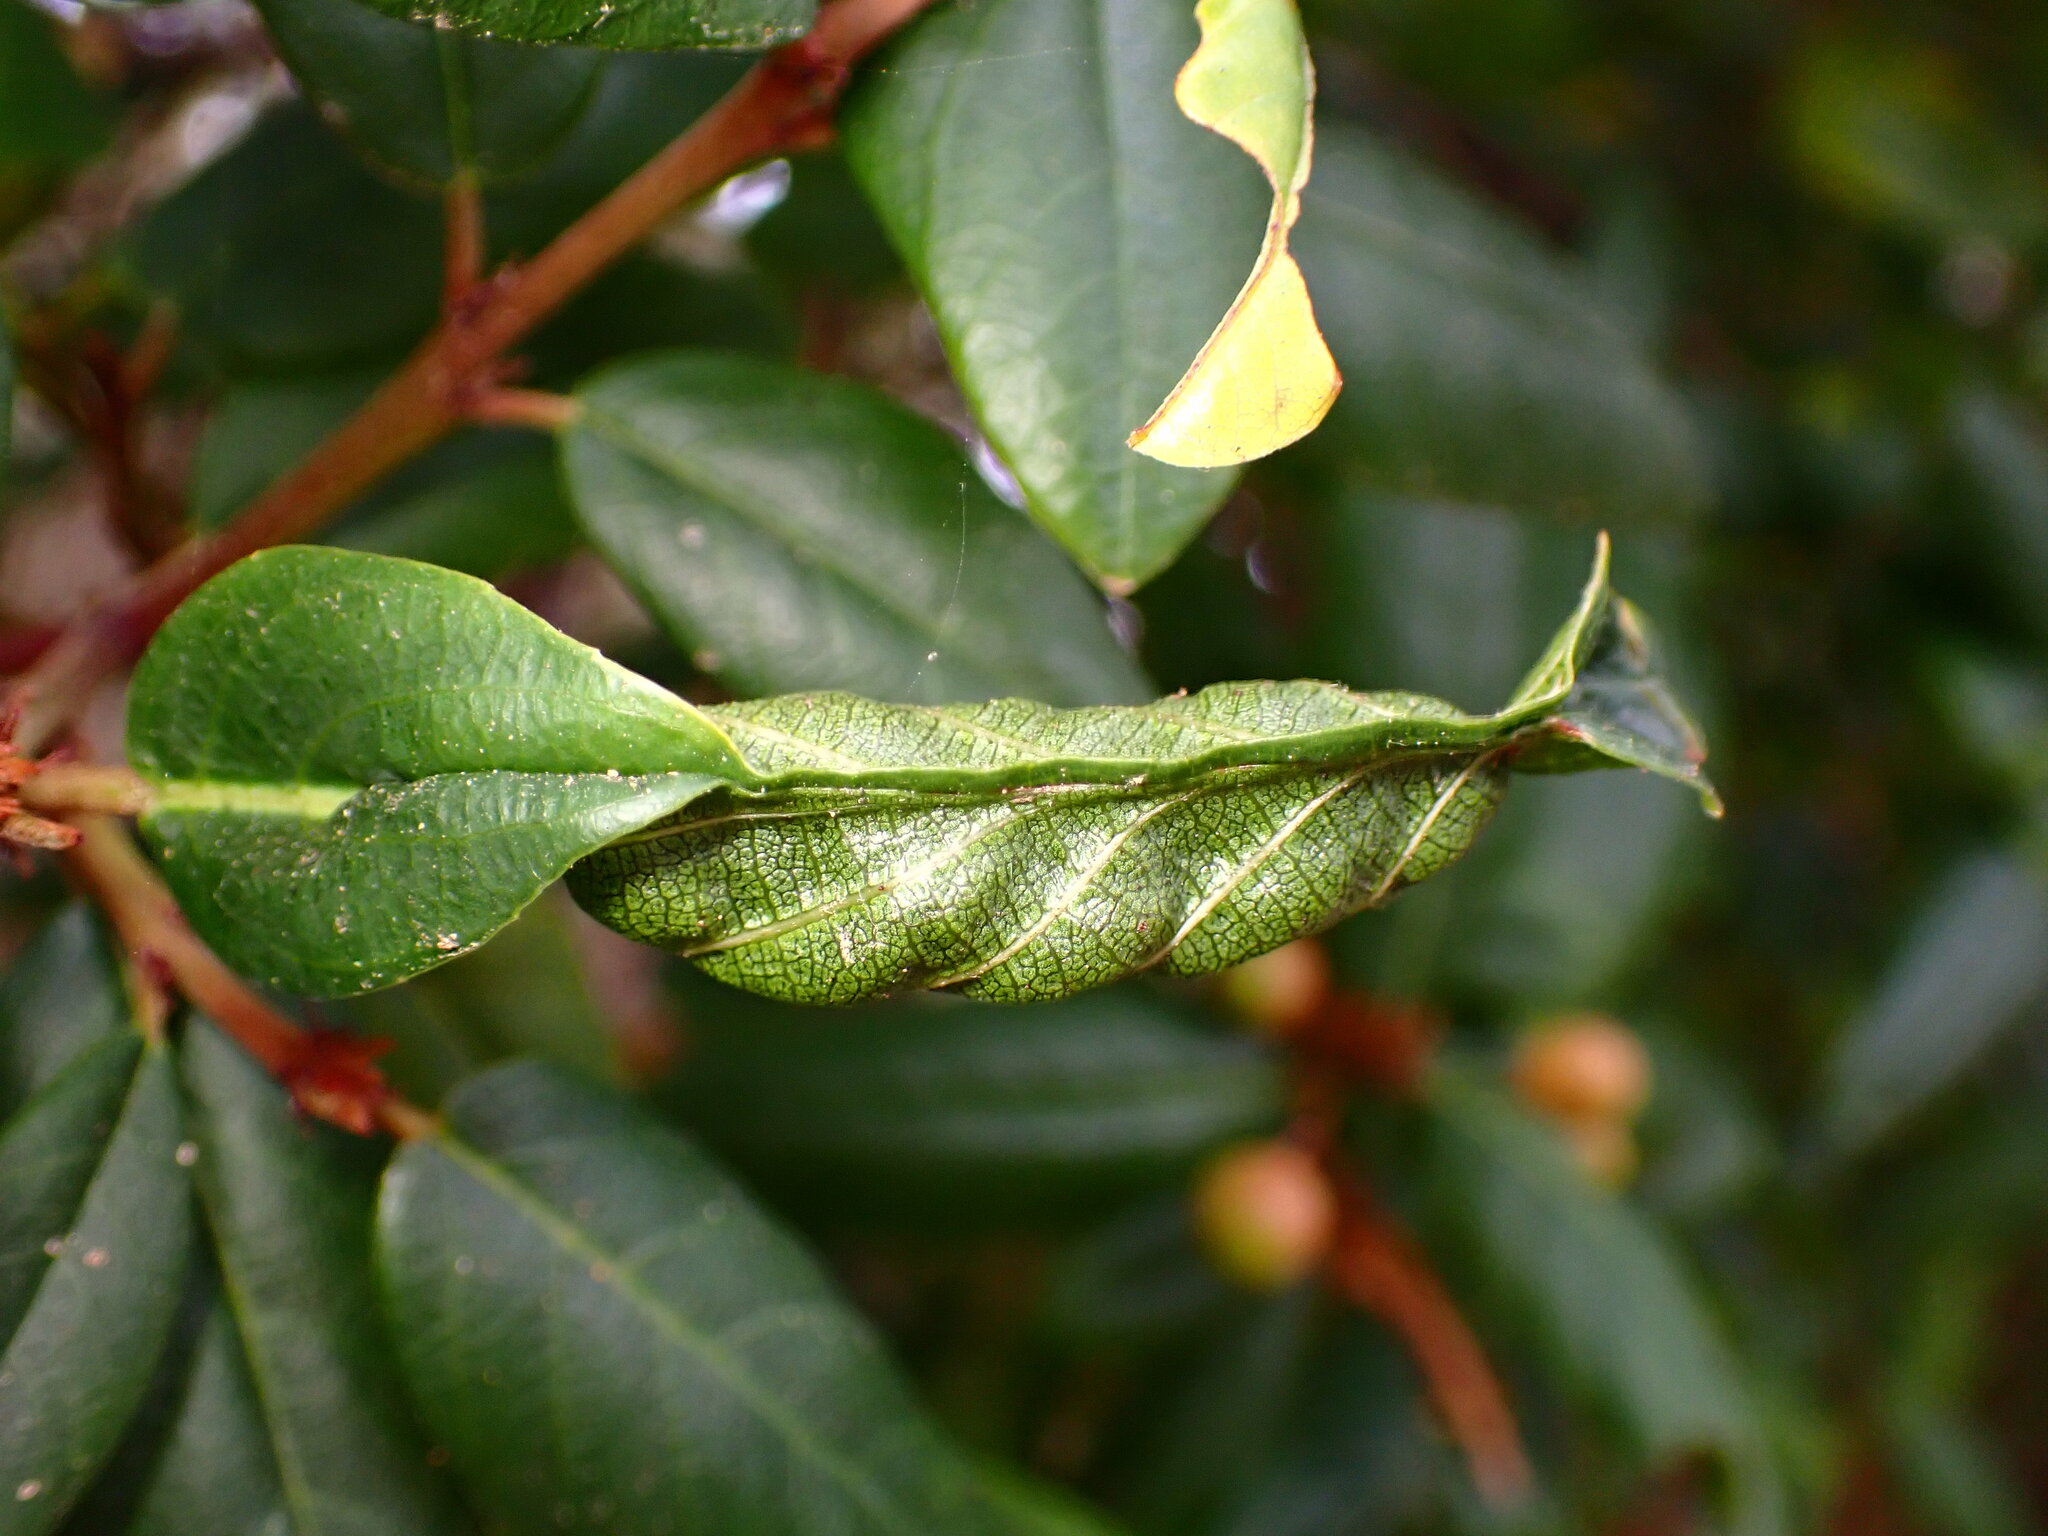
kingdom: Animalia
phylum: Arthropoda
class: Insecta
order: Lepidoptera
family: Cosmopterigidae
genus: Sorhagenia
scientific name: Sorhagenia nimbosus
